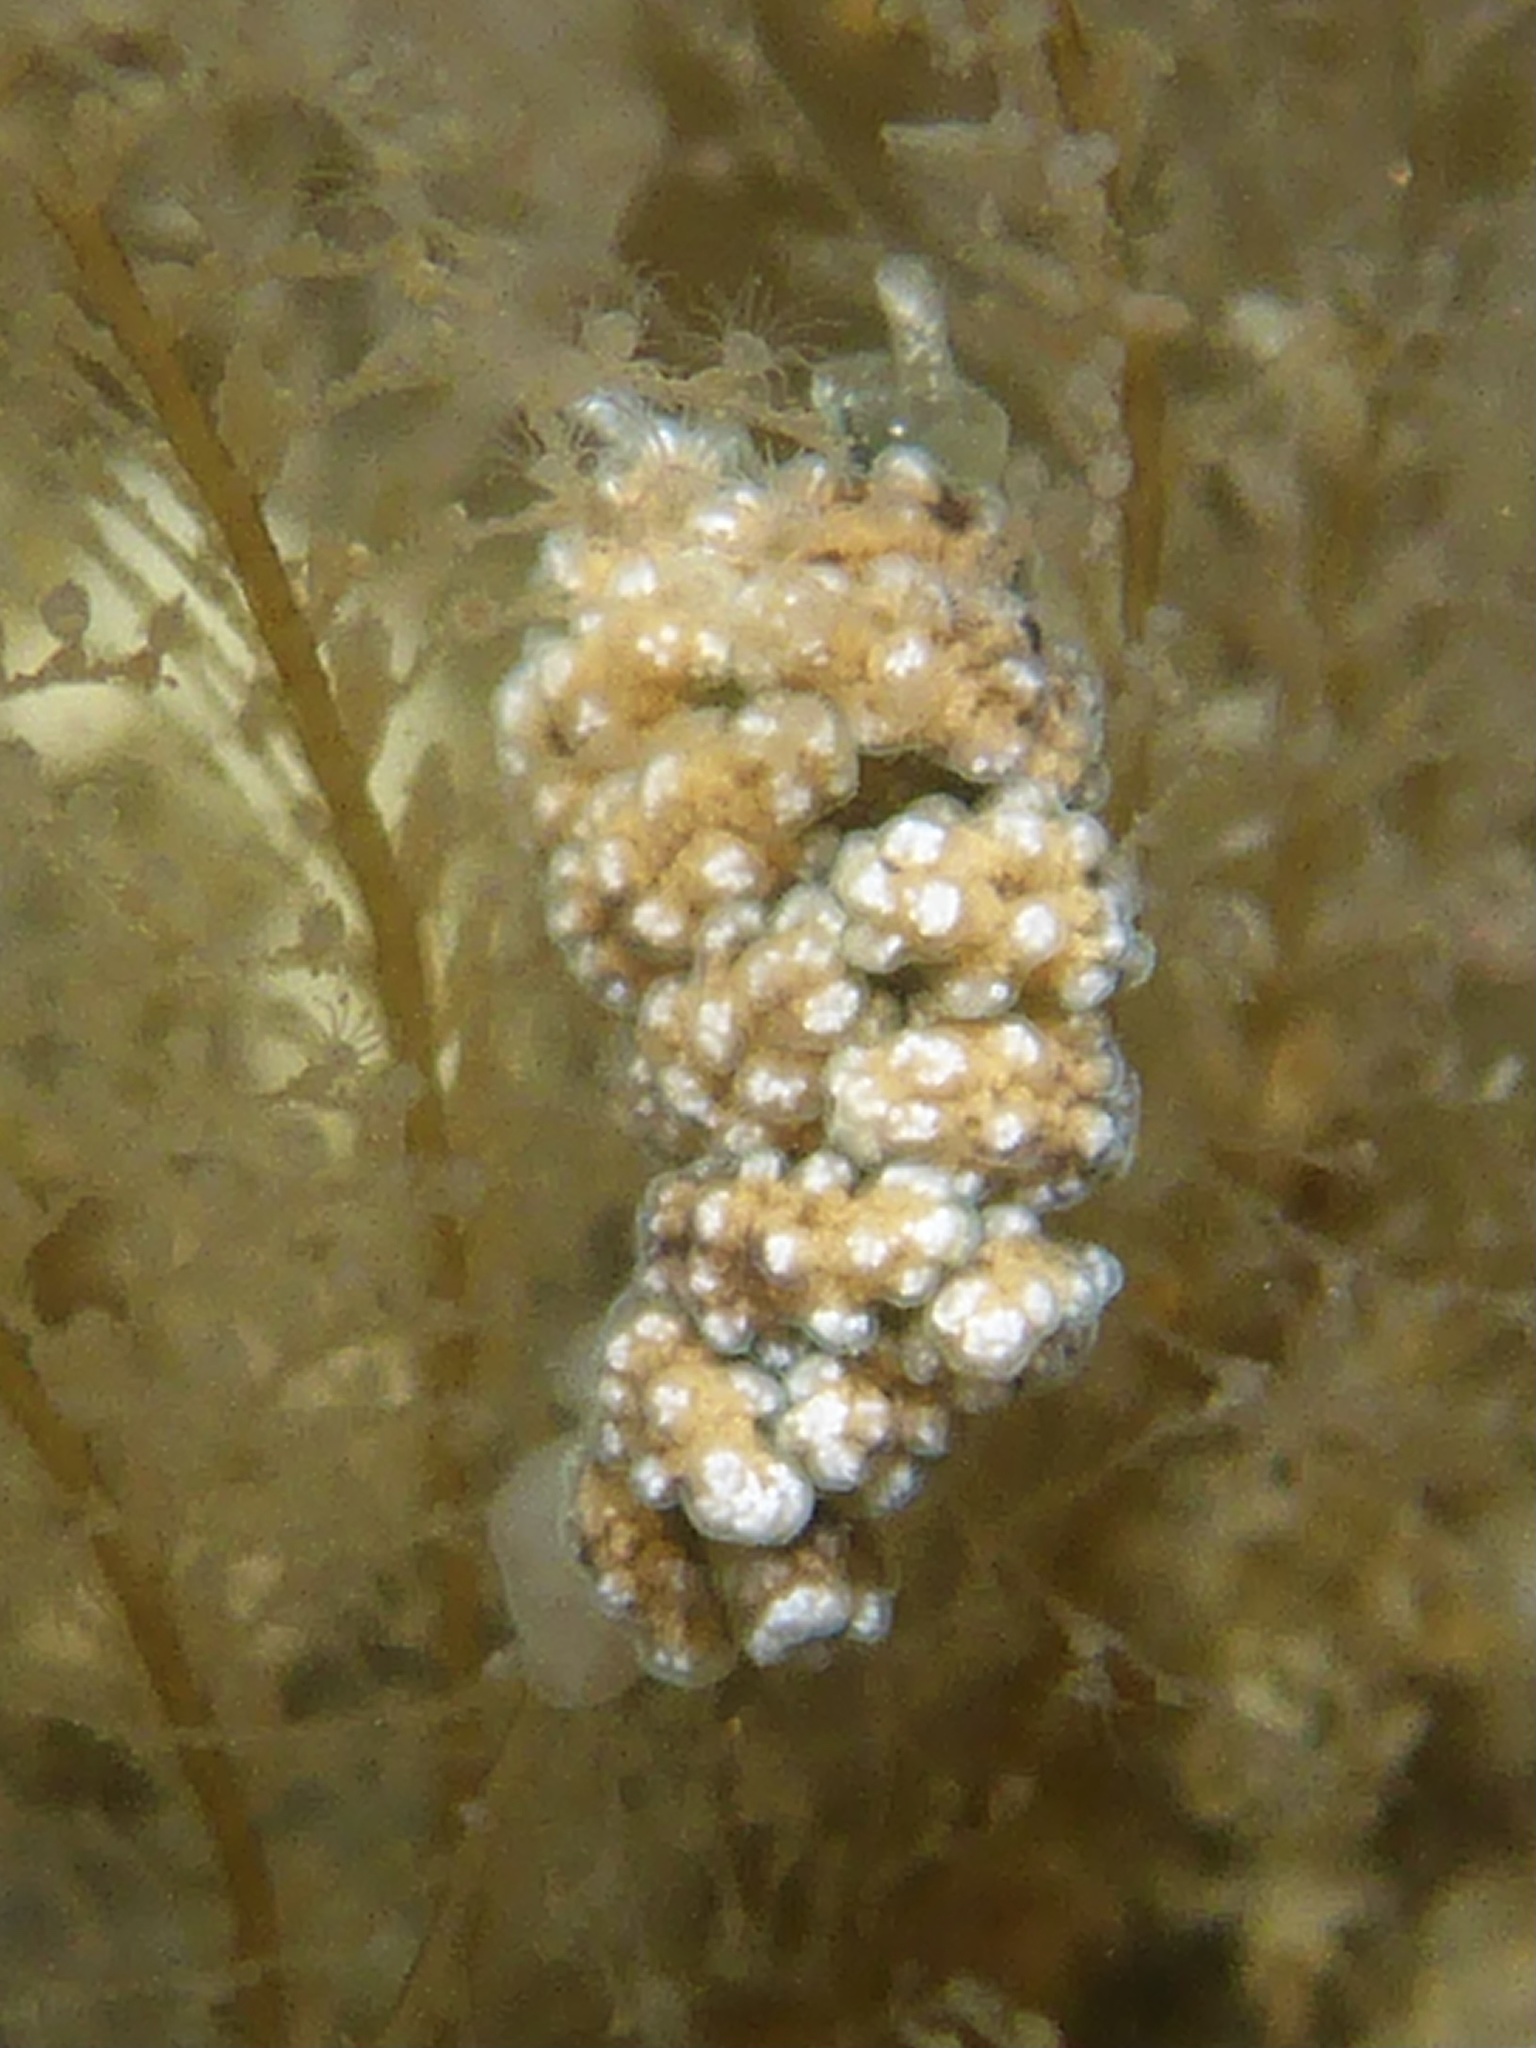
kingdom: Animalia
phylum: Mollusca
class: Gastropoda
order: Nudibranchia
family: Dotidae
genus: Doto
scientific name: Doto kya
